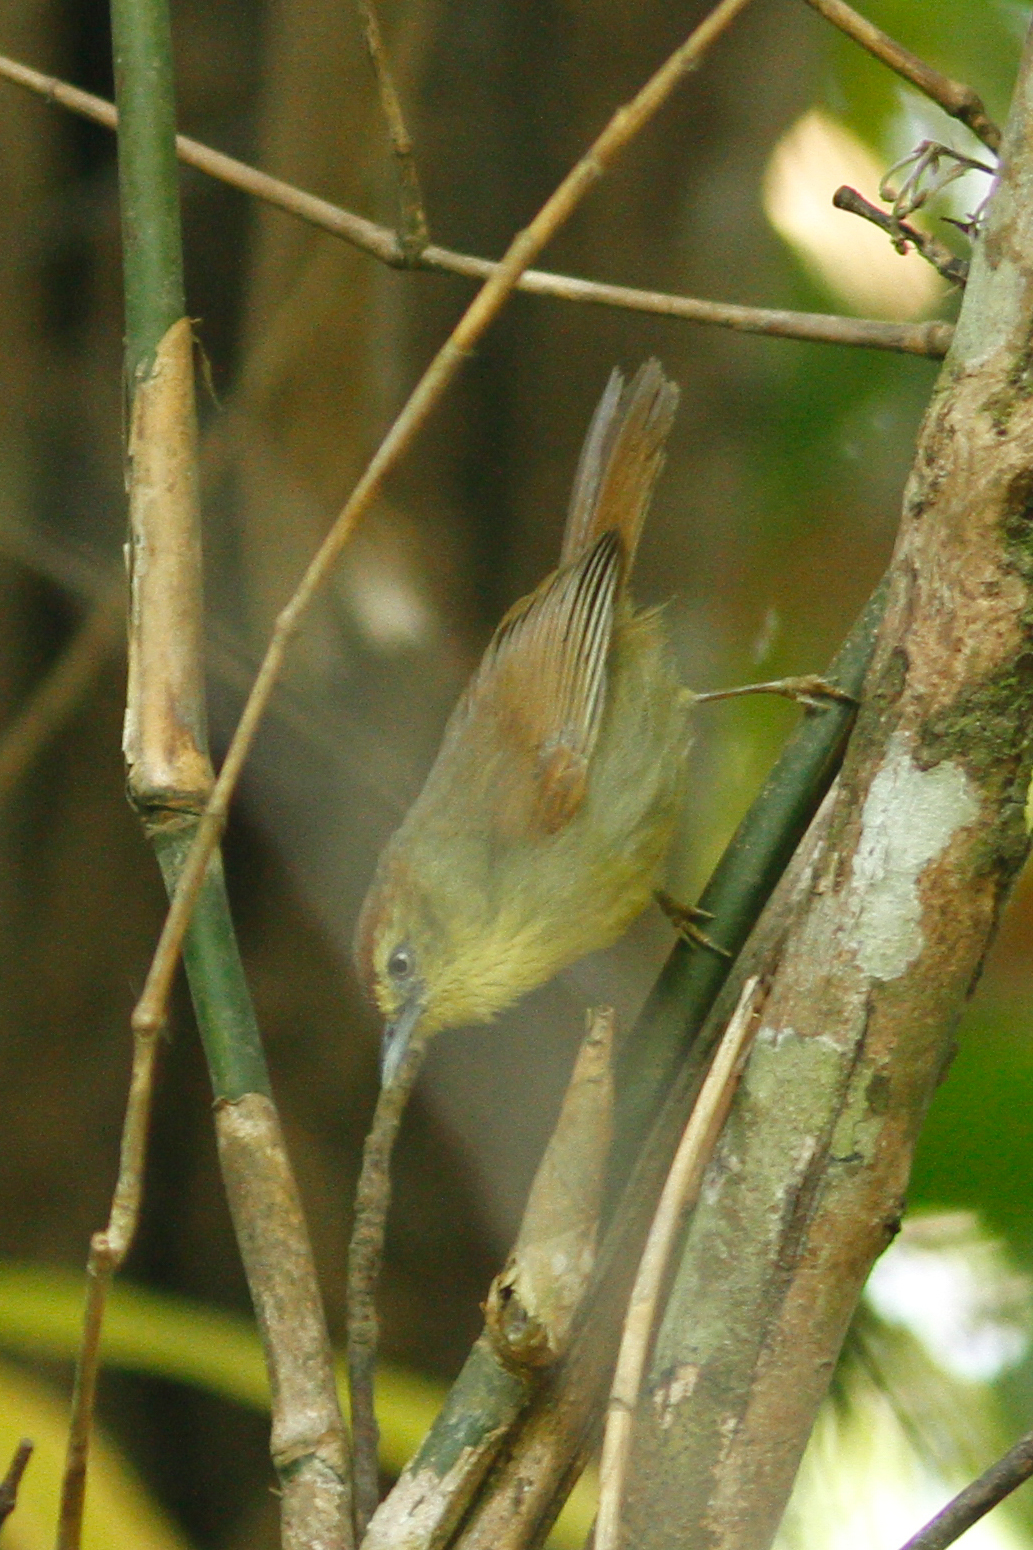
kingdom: Animalia
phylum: Chordata
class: Aves
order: Passeriformes
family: Timaliidae
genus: Macronus
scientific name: Macronus gularis
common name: Striped tit-babbler
